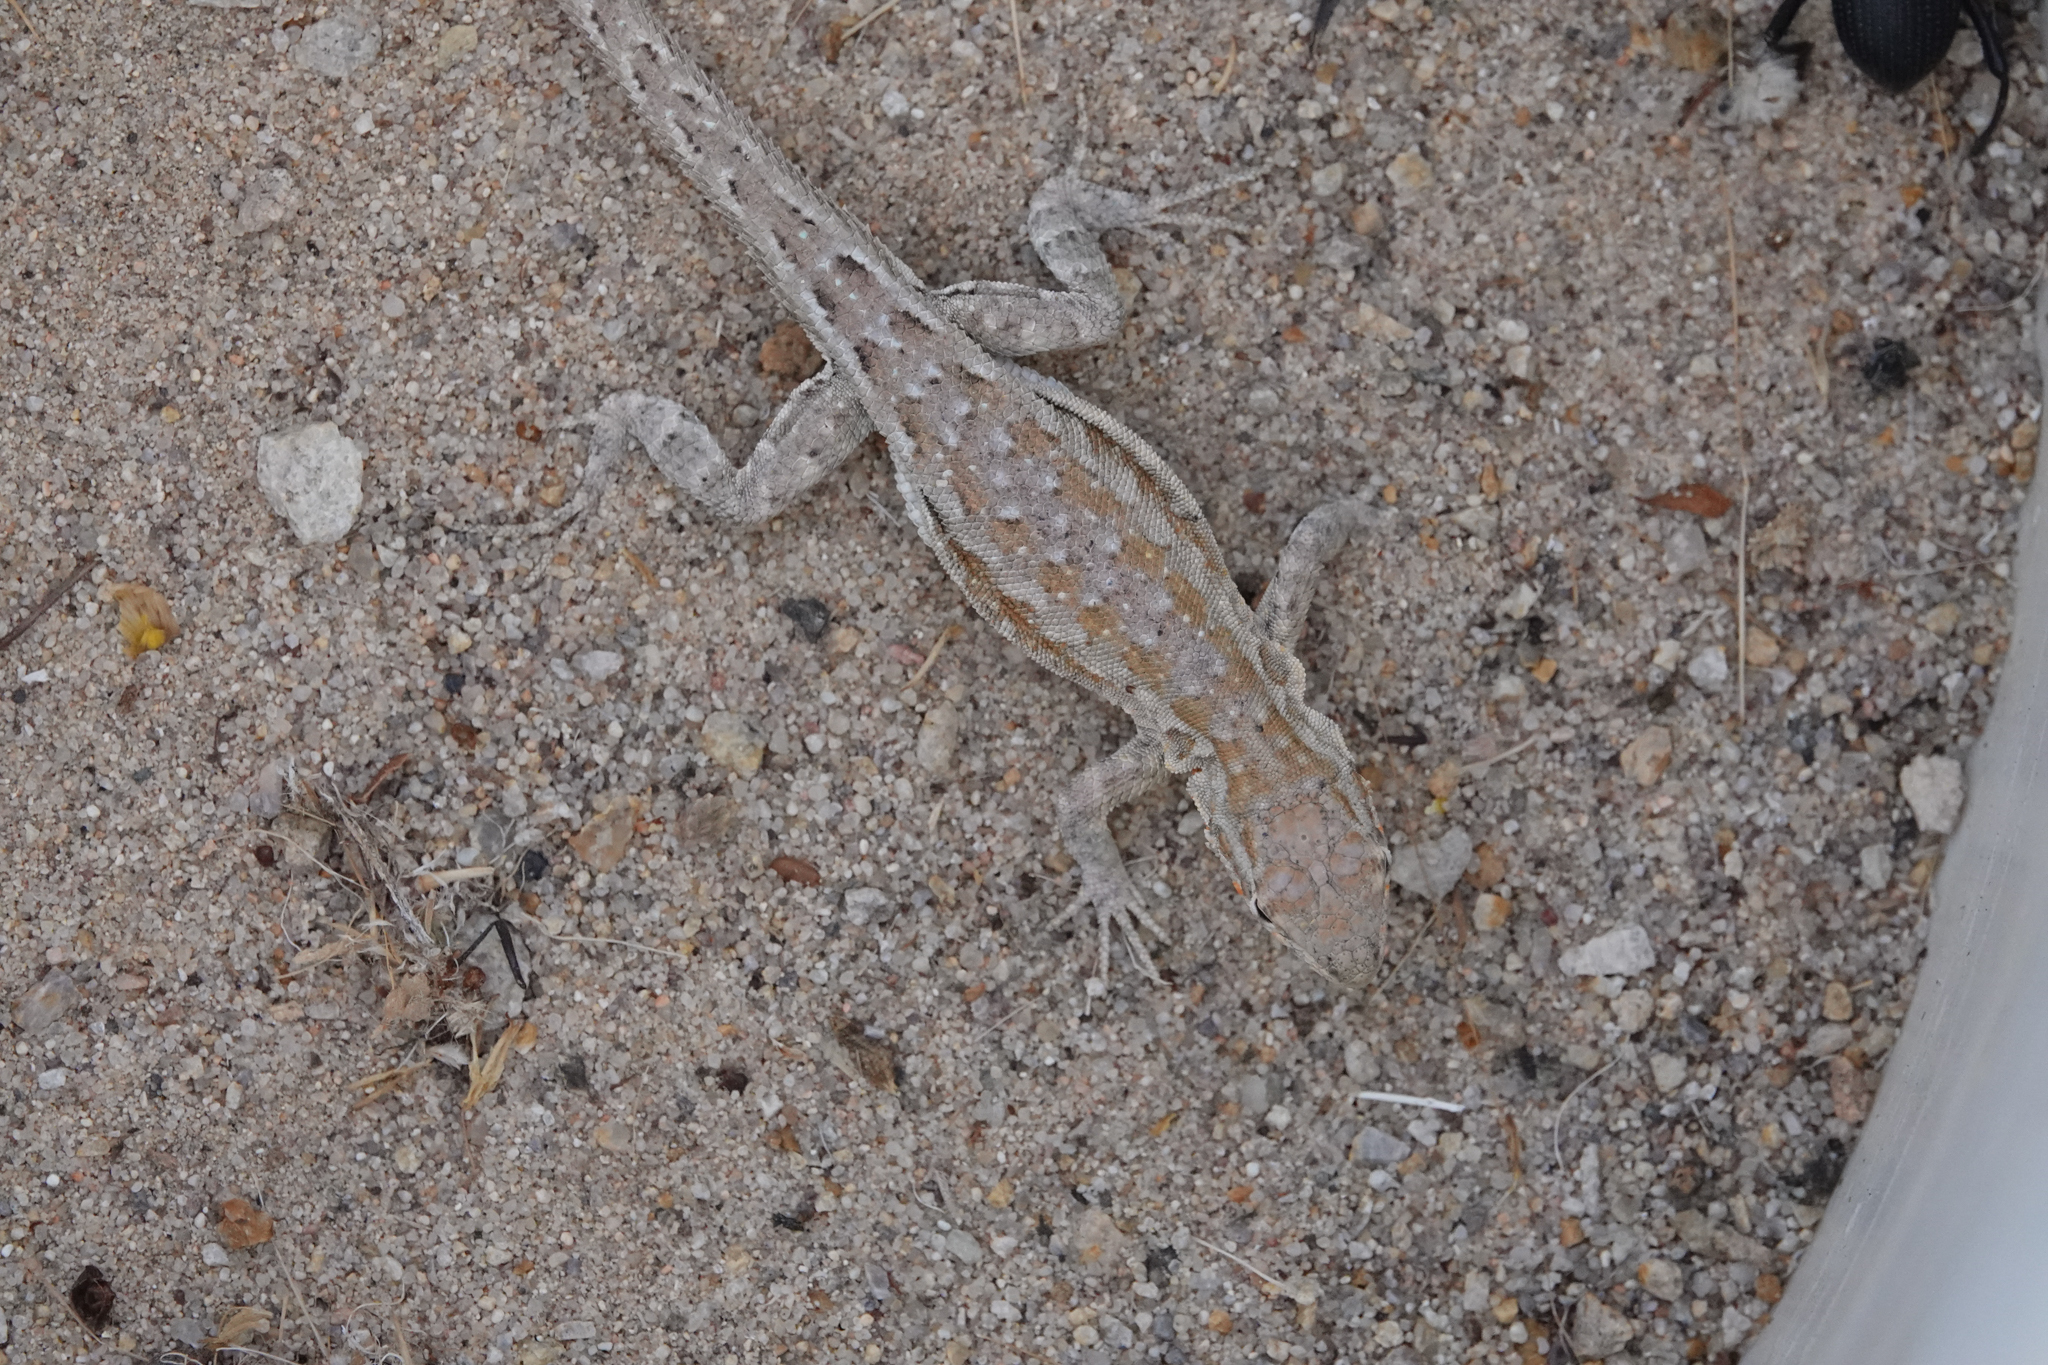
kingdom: Animalia
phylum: Chordata
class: Squamata
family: Phrynosomatidae
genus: Uta
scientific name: Uta stansburiana
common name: Side-blotched lizard
